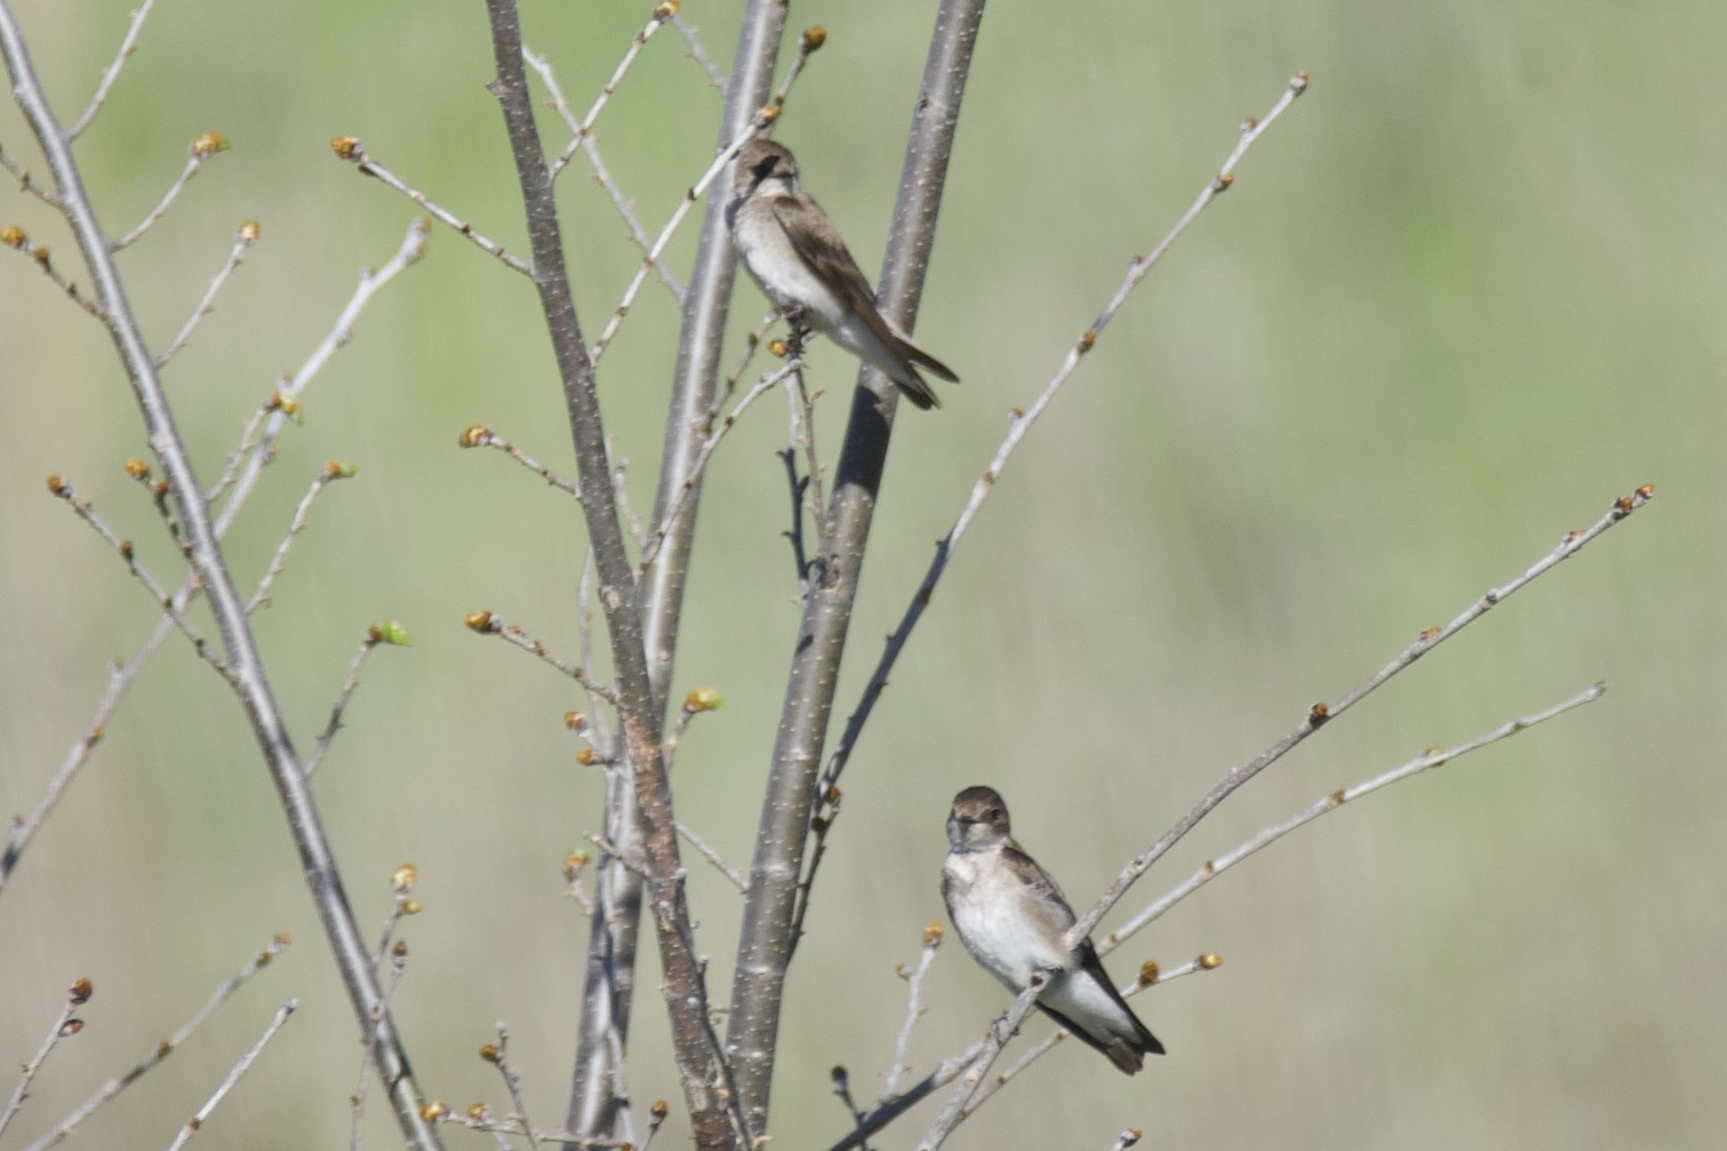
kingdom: Animalia
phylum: Chordata
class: Aves
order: Passeriformes
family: Hirundinidae
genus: Stelgidopteryx
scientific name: Stelgidopteryx serripennis
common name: Northern rough-winged swallow
